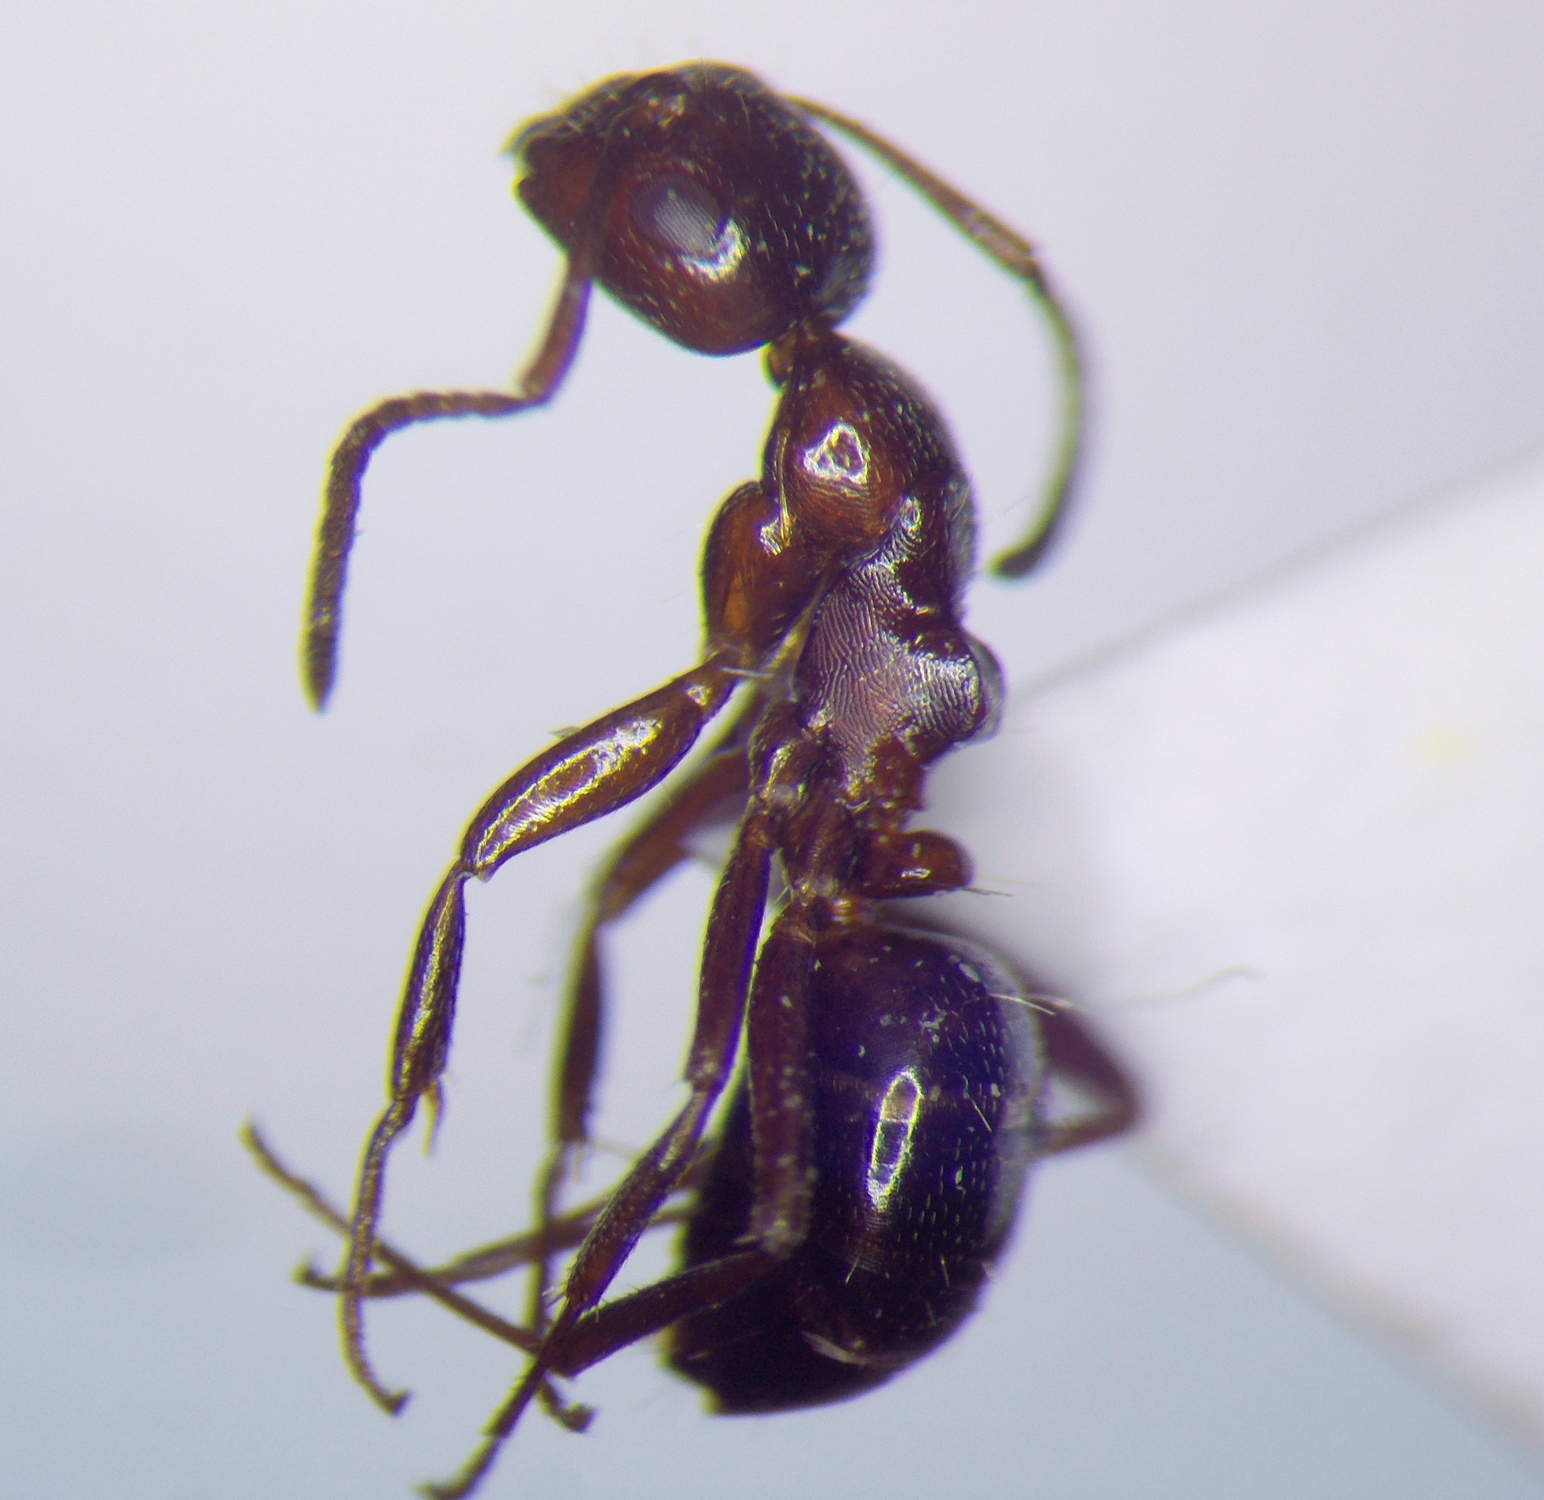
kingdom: Animalia
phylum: Arthropoda
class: Insecta
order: Hymenoptera
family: Formicidae
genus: Camponotus
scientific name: Camponotus lateralis
